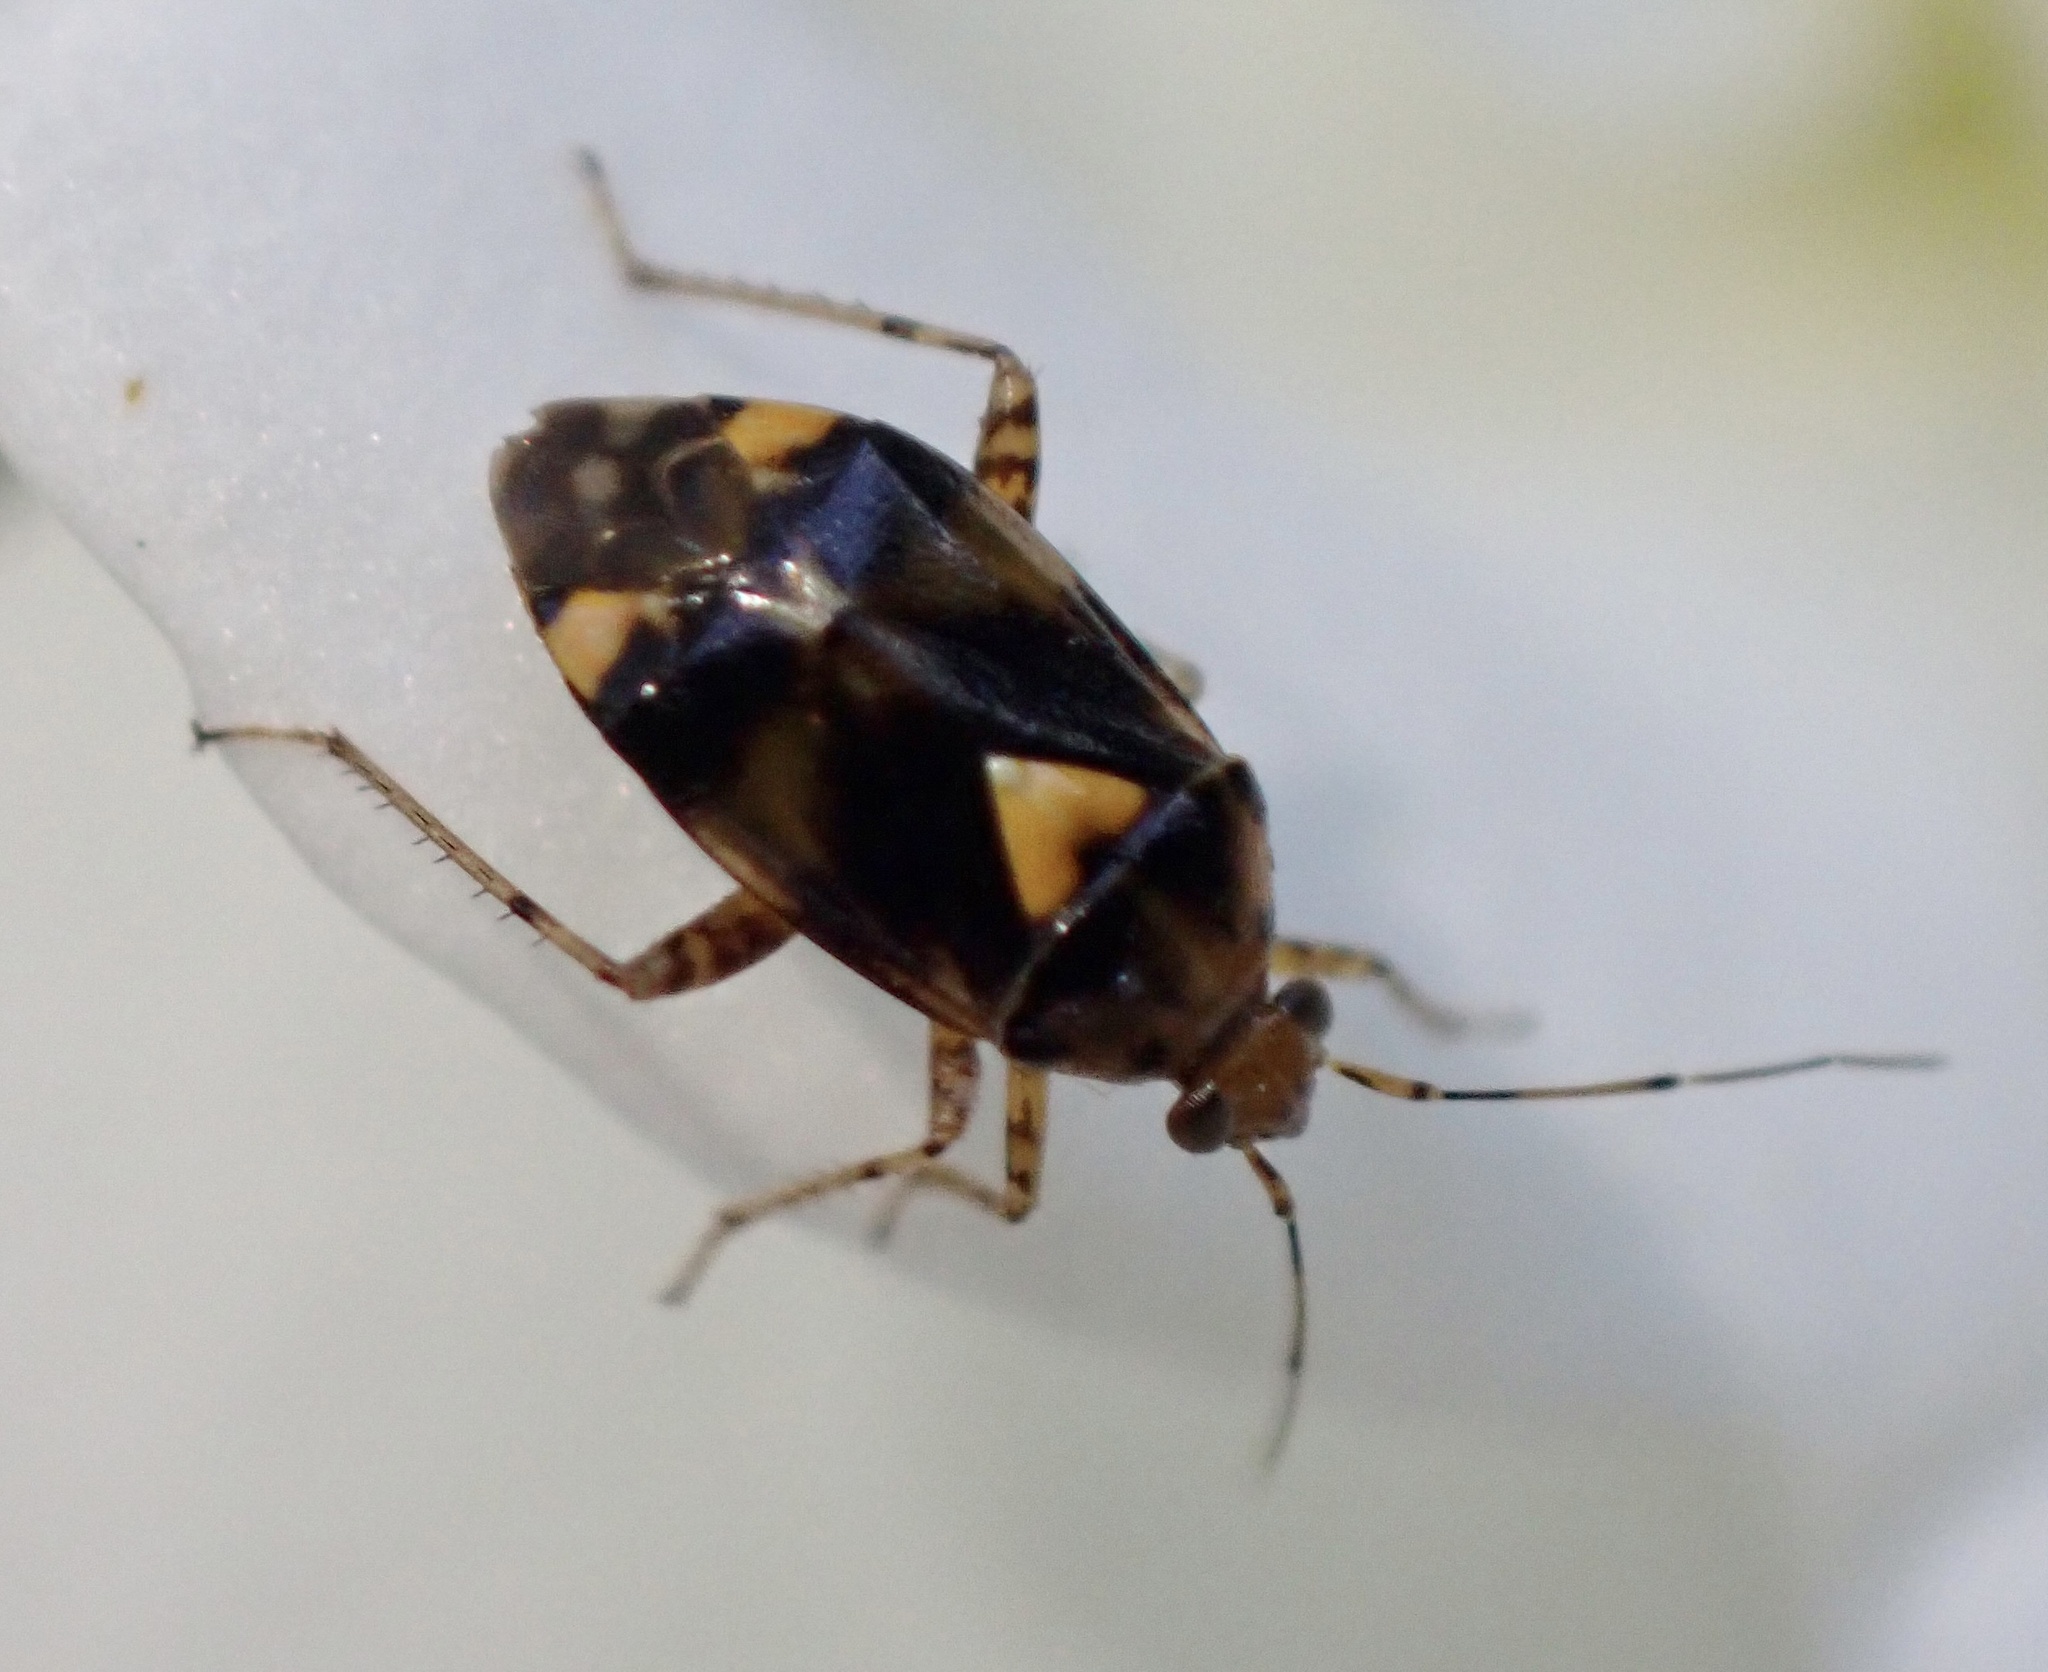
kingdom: Animalia
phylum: Arthropoda
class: Insecta
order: Hemiptera
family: Miridae
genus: Liocoris
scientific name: Liocoris tripustulatus
